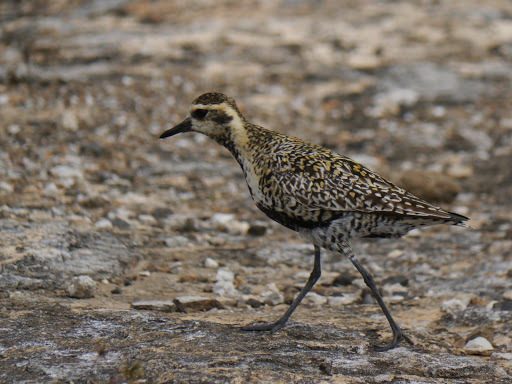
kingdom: Animalia
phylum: Chordata
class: Aves
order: Charadriiformes
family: Charadriidae
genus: Pluvialis
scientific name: Pluvialis fulva
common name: Pacific golden plover
